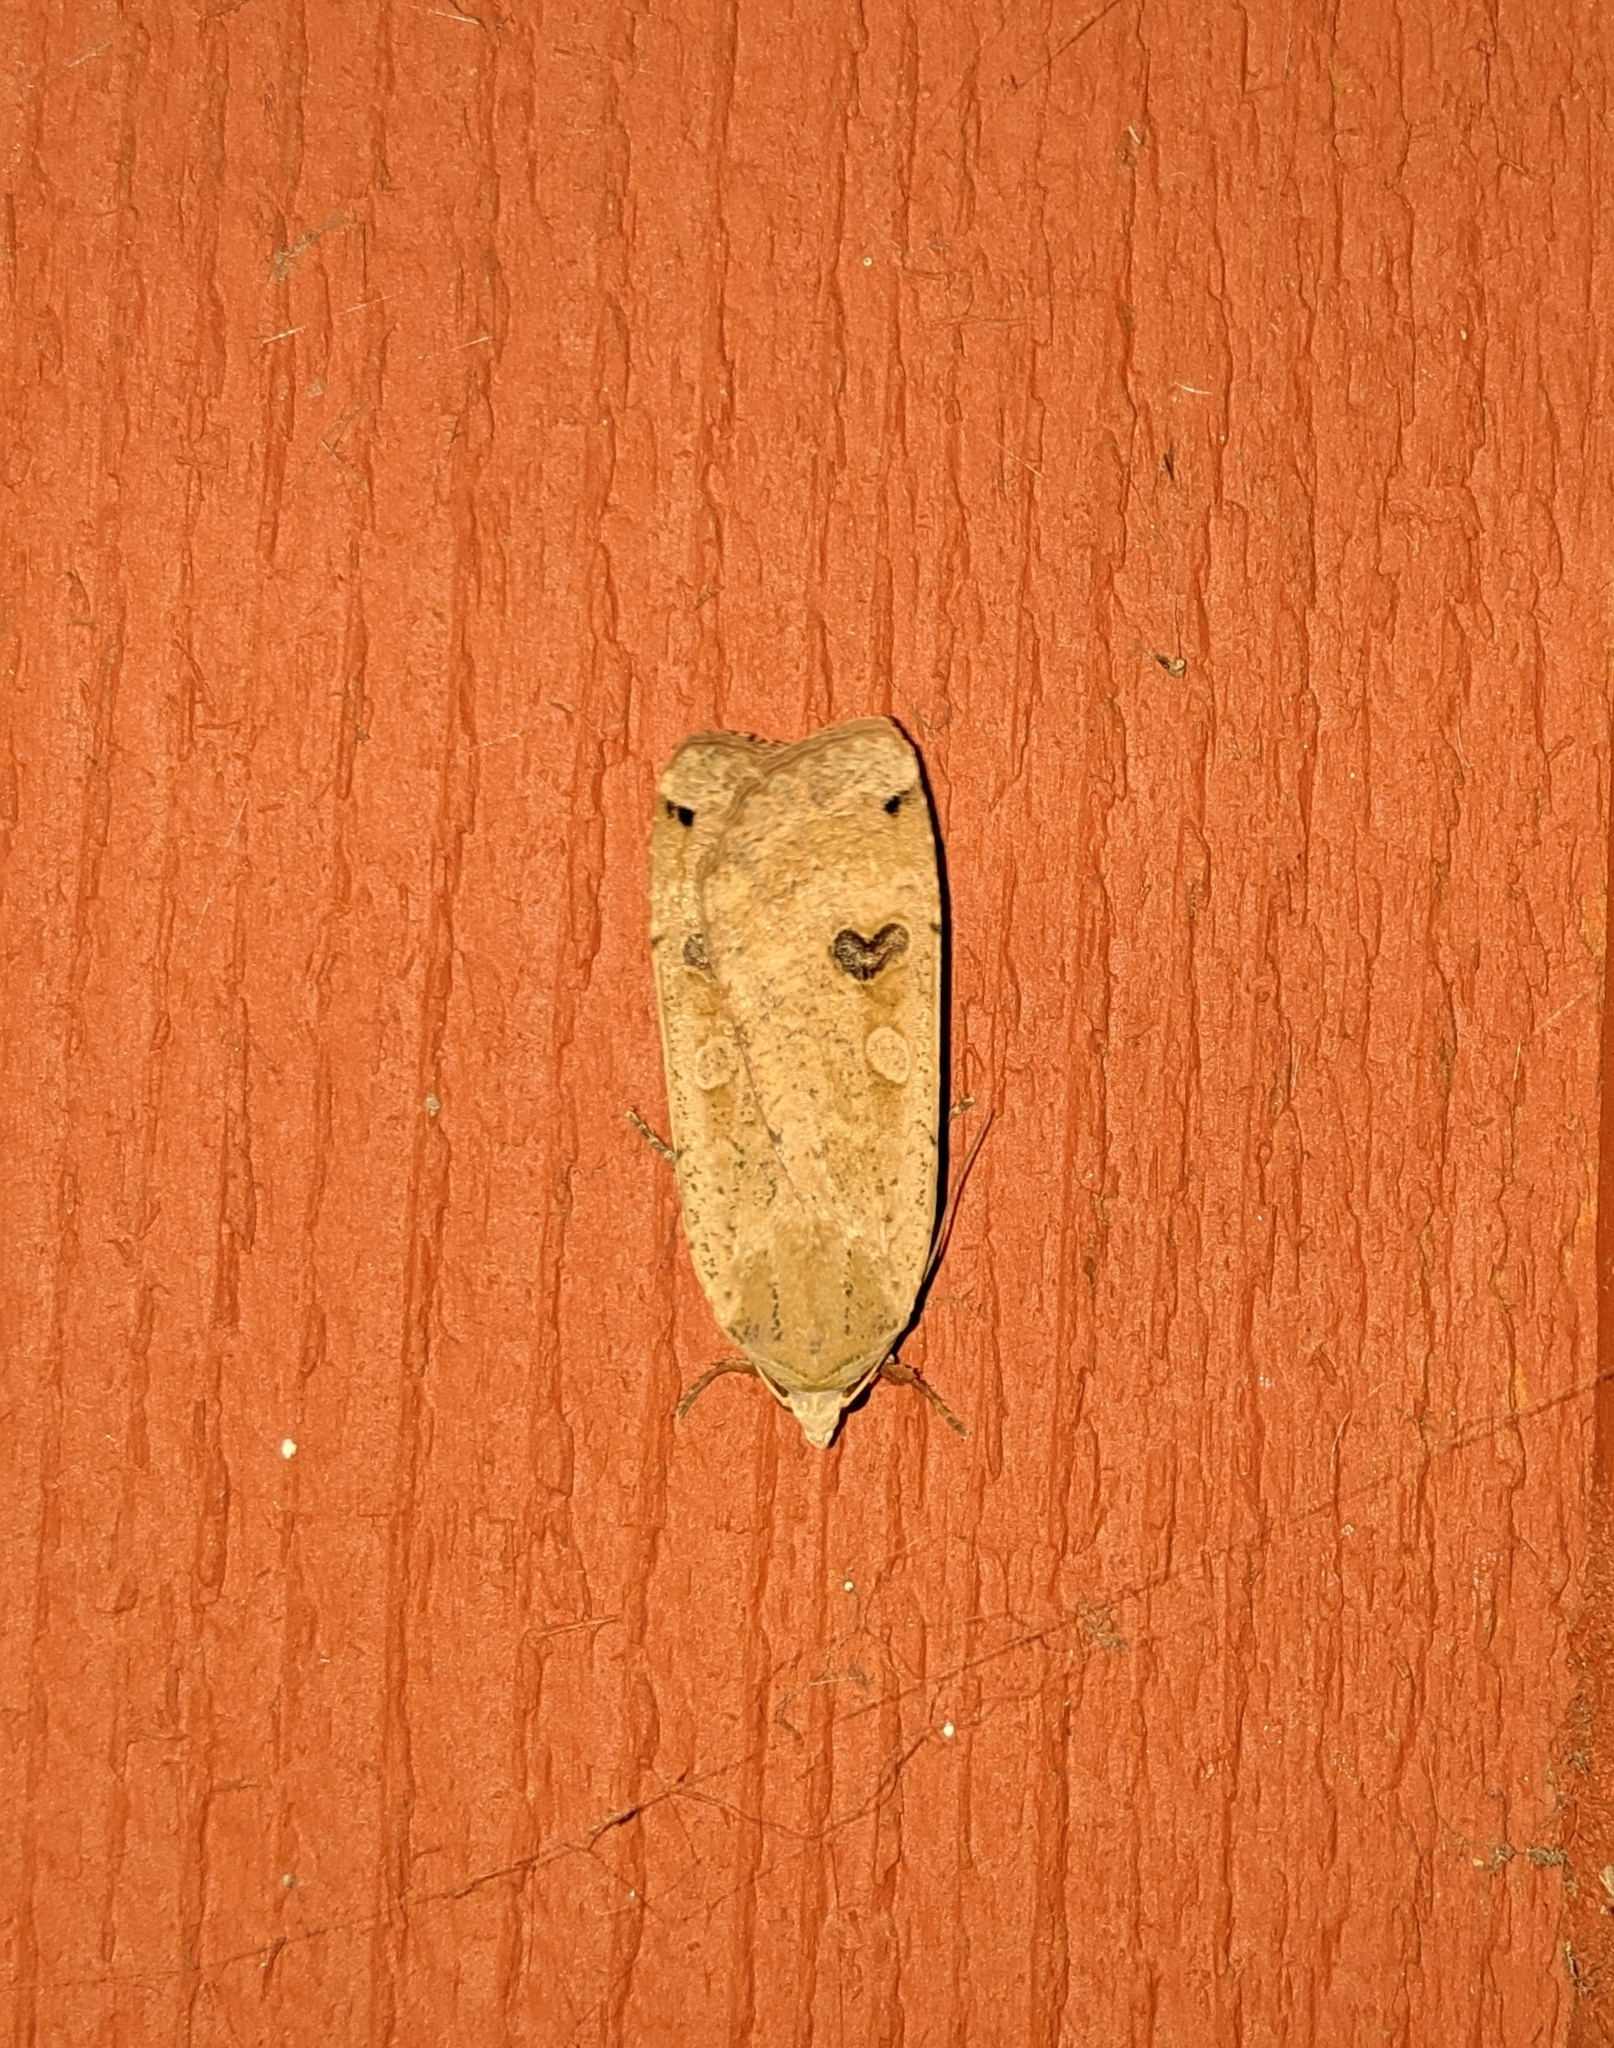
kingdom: Animalia
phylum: Arthropoda
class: Insecta
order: Lepidoptera
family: Noctuidae
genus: Noctua
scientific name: Noctua pronuba
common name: Large yellow underwing
